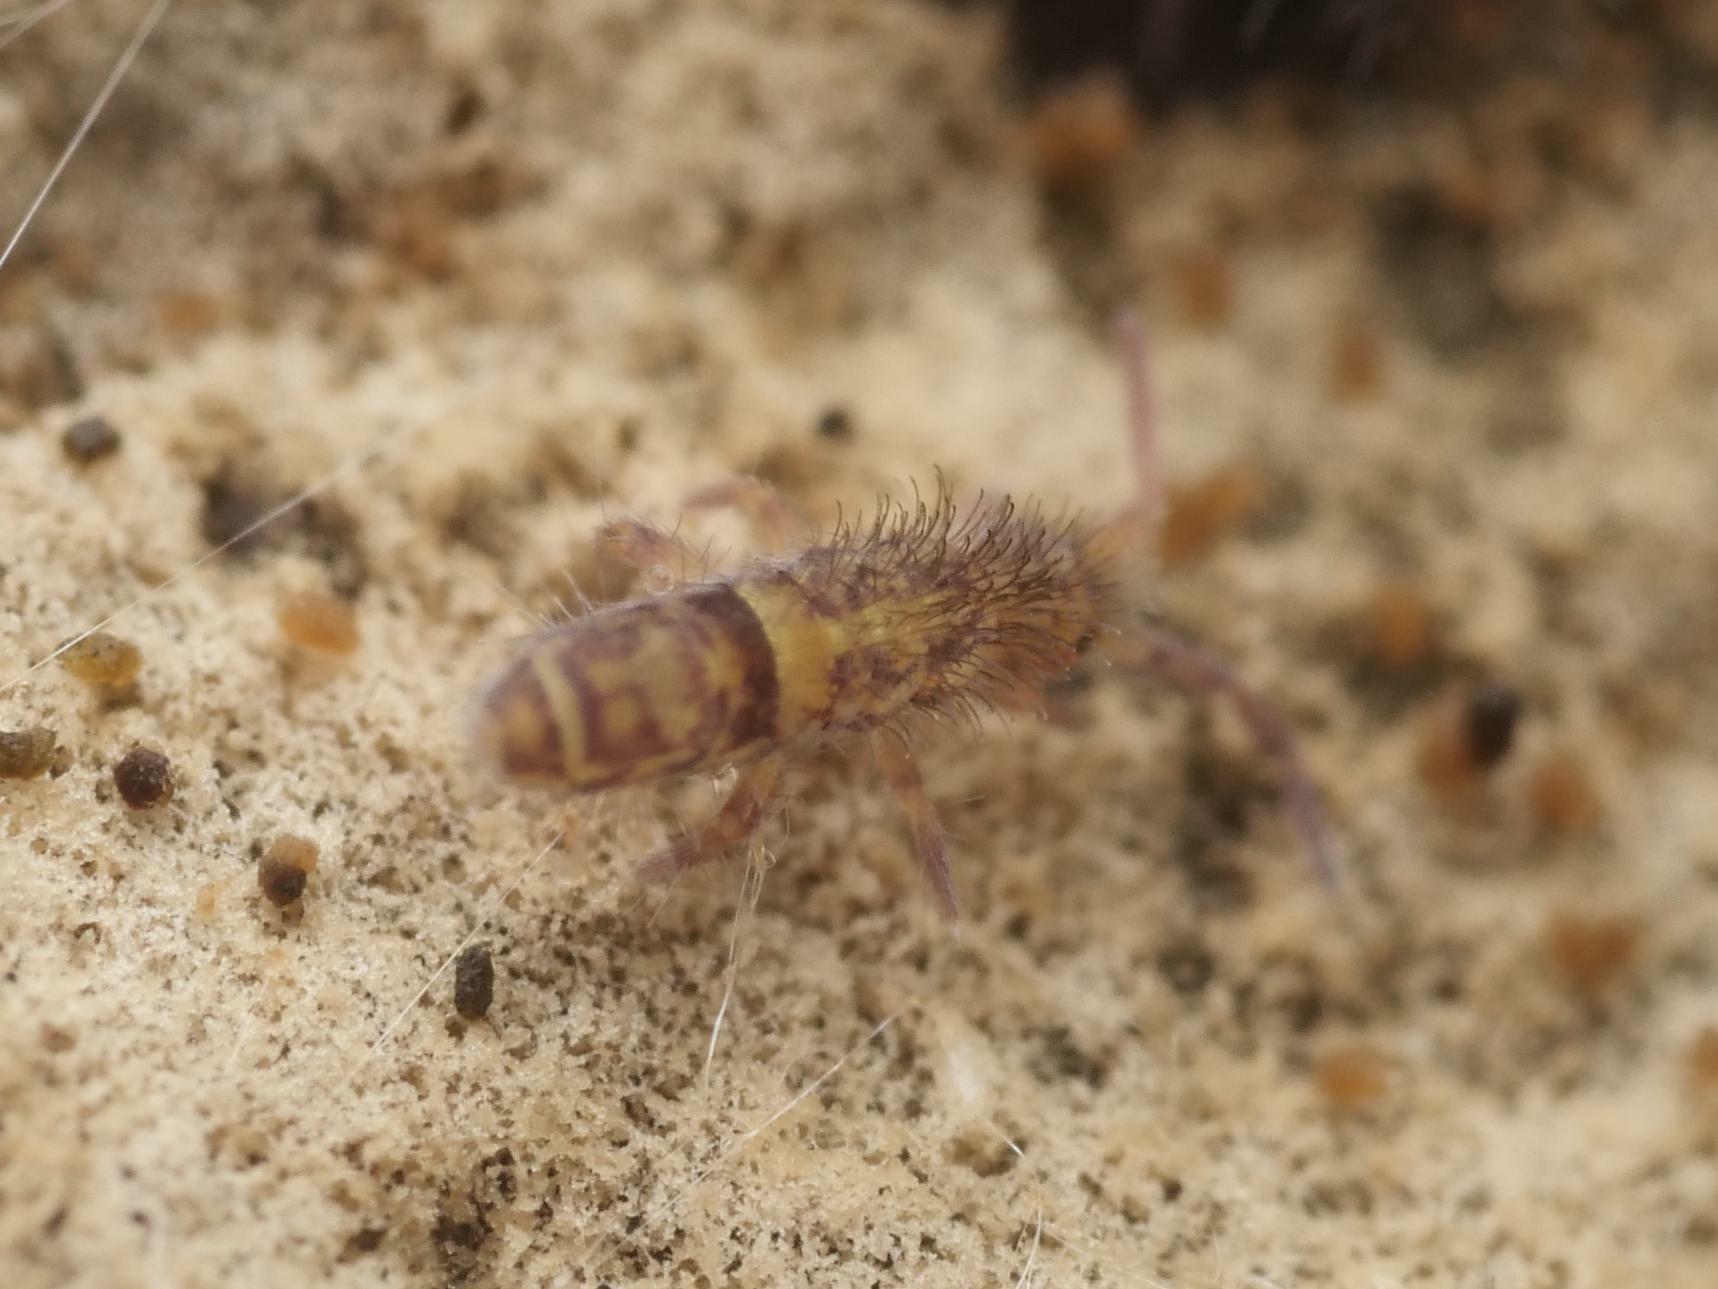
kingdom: Animalia
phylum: Arthropoda
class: Collembola
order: Entomobryomorpha
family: Orchesellidae
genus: Orchesella
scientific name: Orchesella cincta
